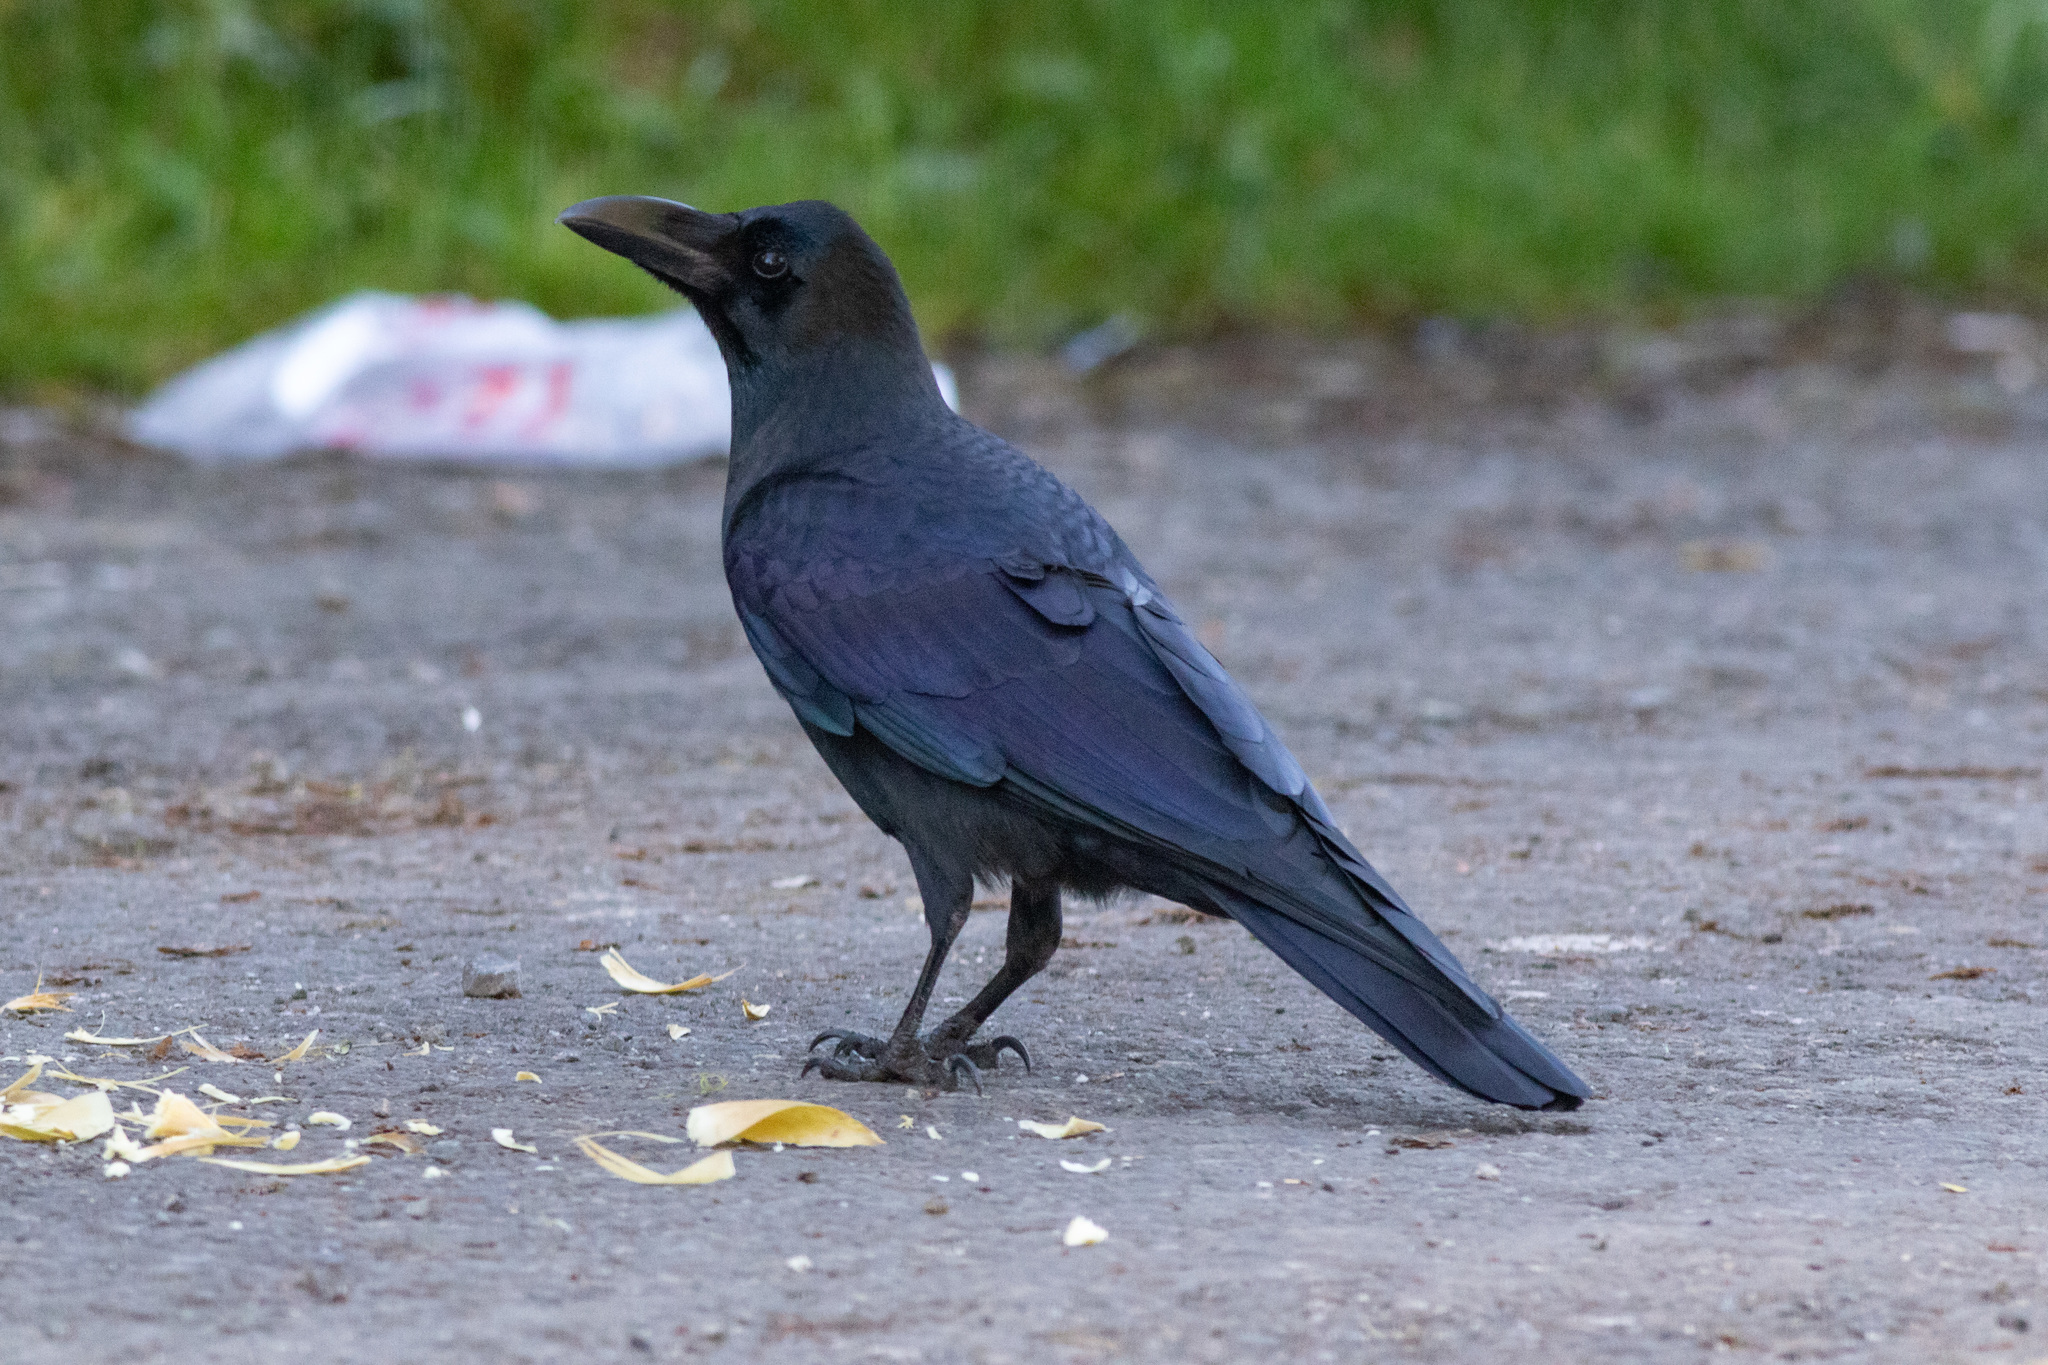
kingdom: Animalia
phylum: Chordata
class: Aves
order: Passeriformes
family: Corvidae
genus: Corvus
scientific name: Corvus macrorhynchos
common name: Large-billed crow
